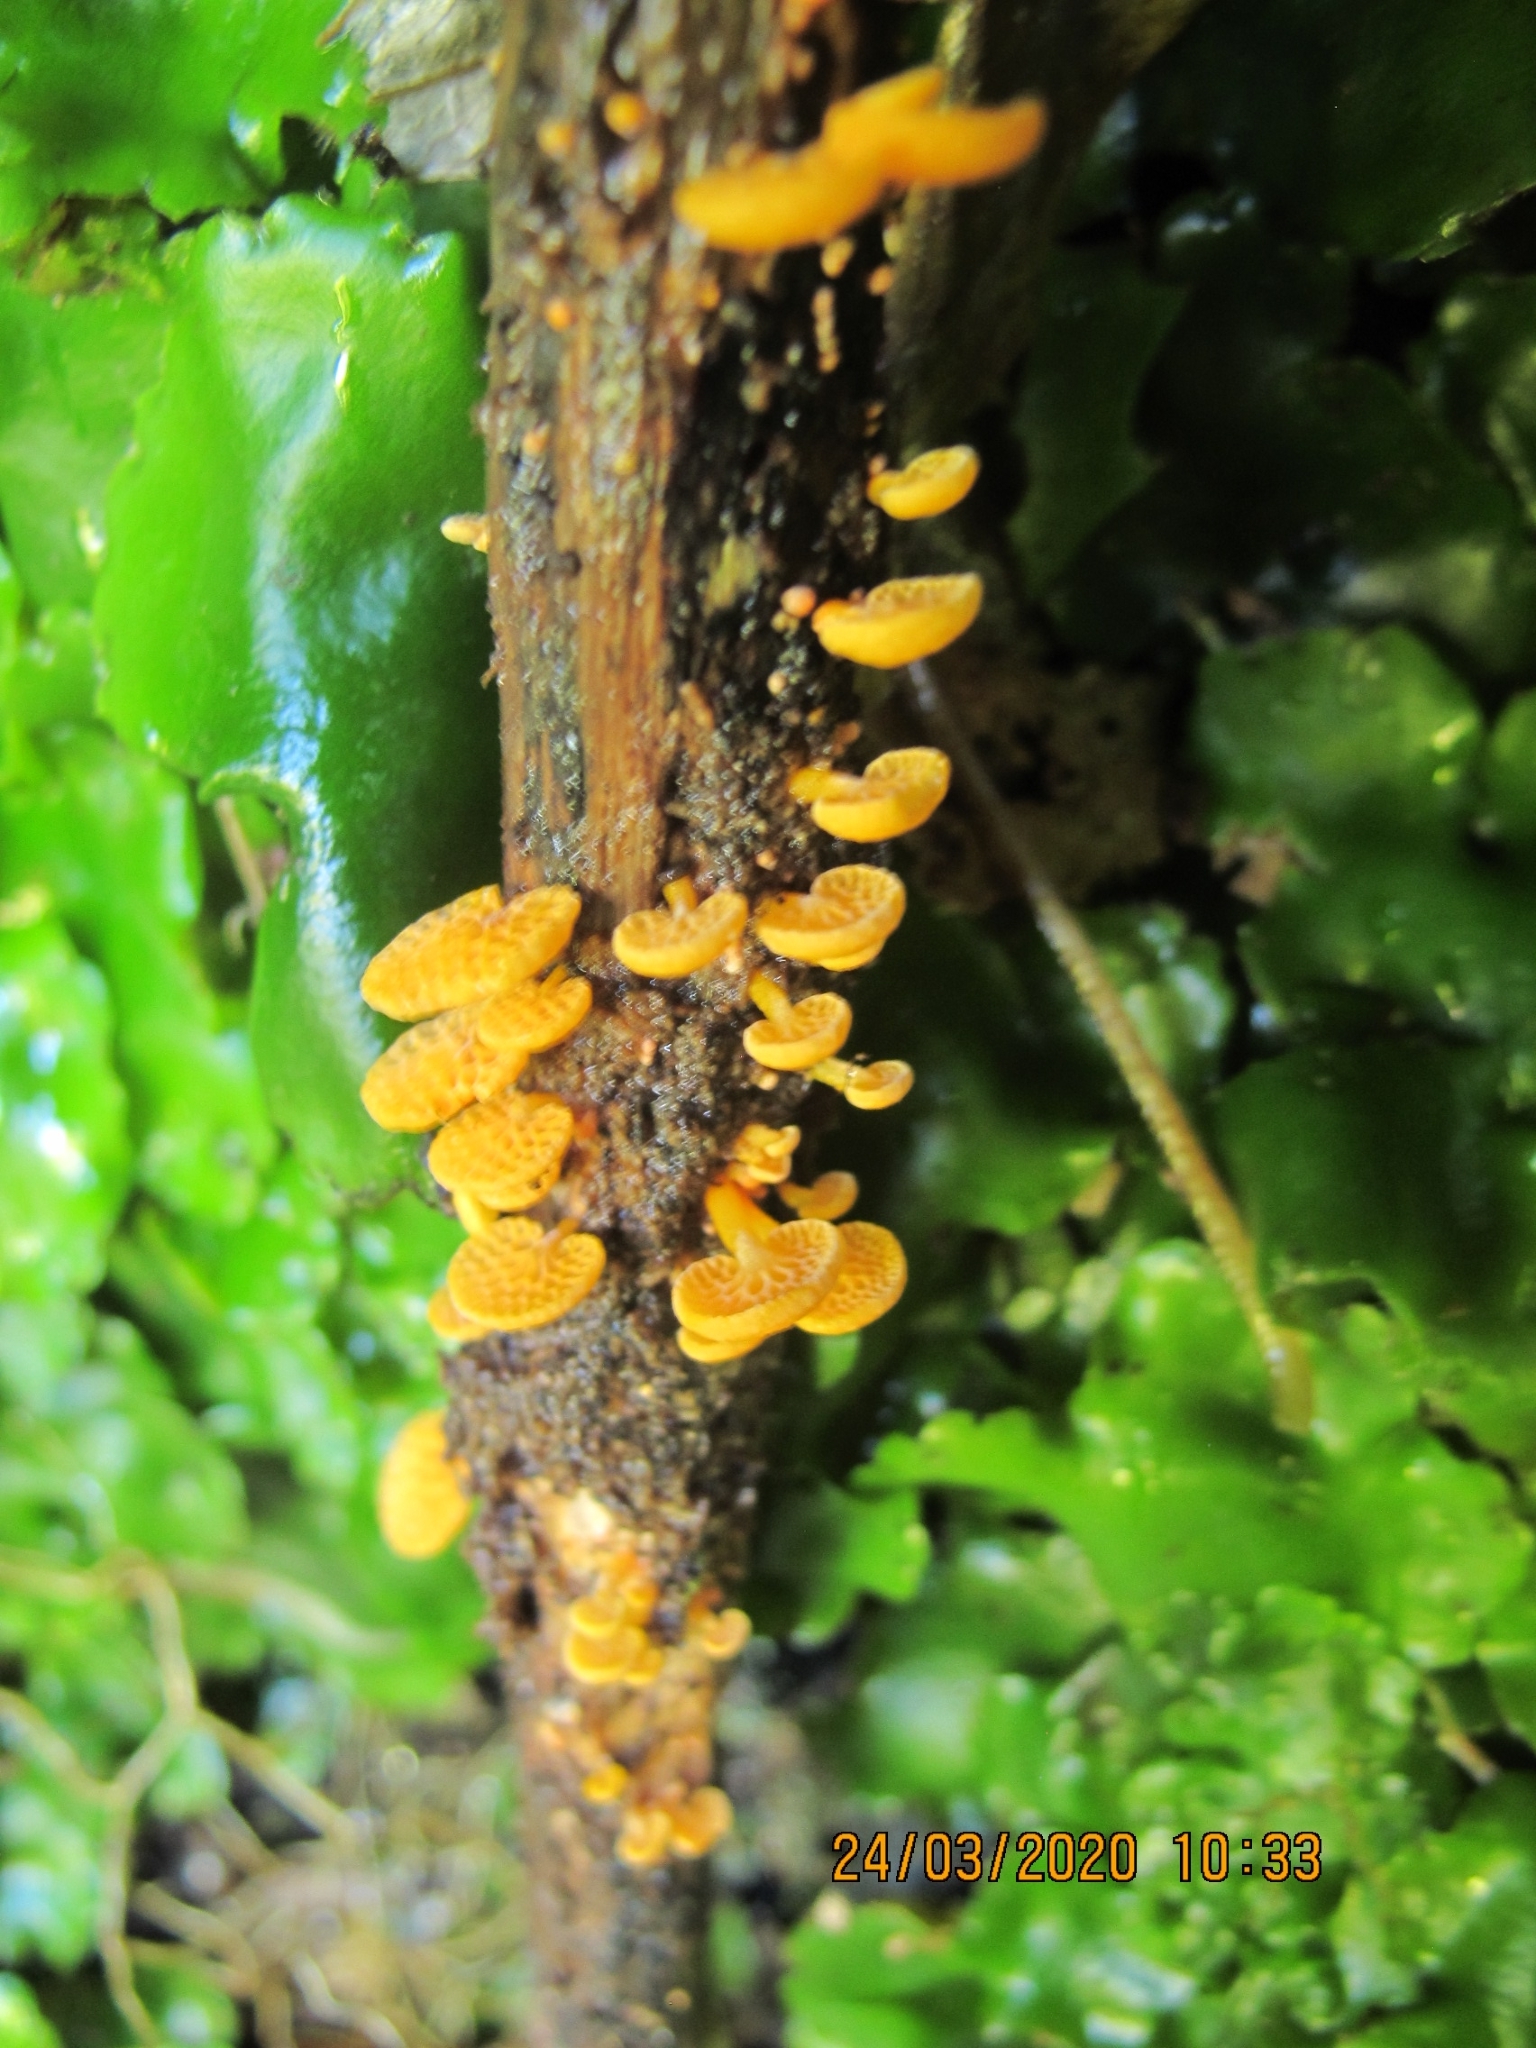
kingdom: Fungi
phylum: Basidiomycota
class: Agaricomycetes
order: Agaricales
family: Mycenaceae
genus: Favolaschia
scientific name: Favolaschia claudopus
